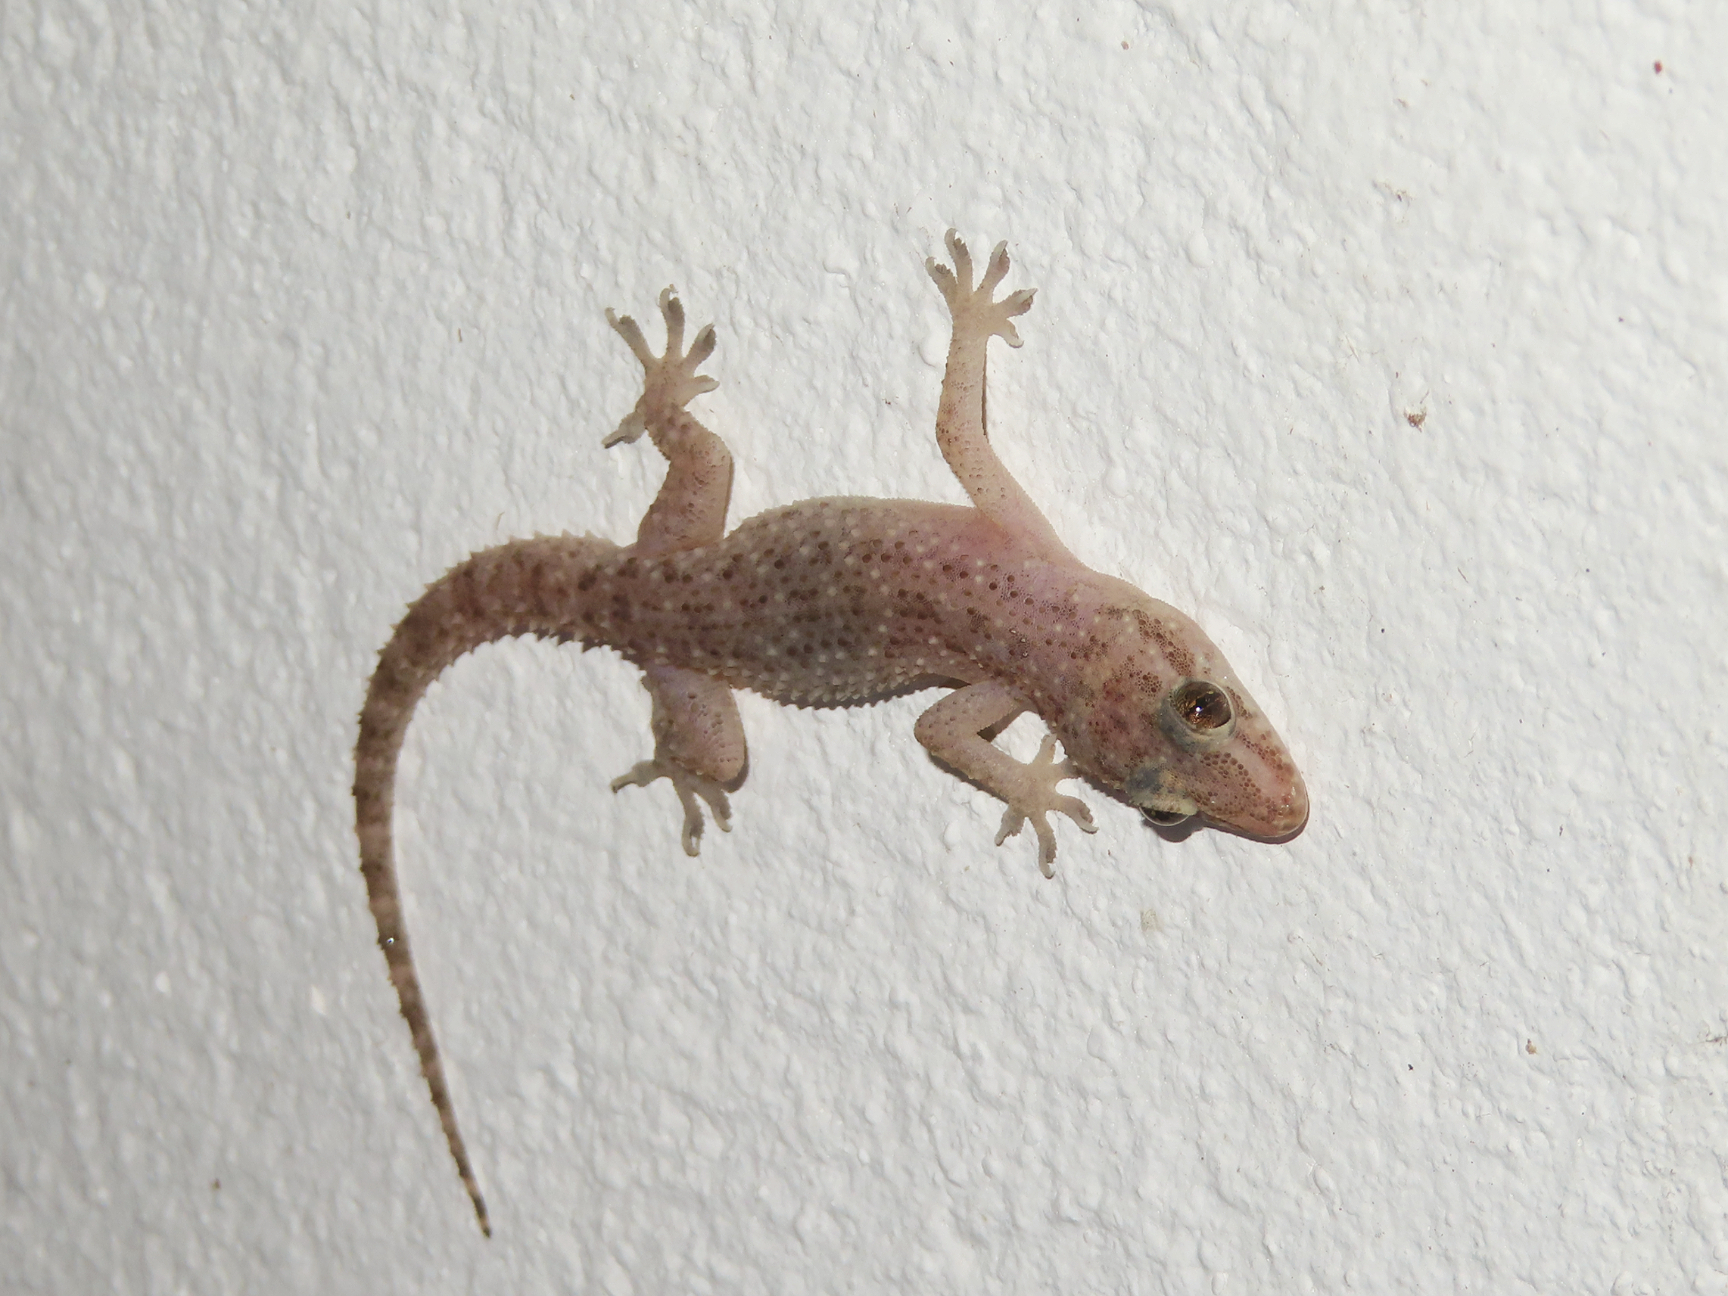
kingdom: Animalia
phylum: Chordata
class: Squamata
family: Gekkonidae
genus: Hemidactylus
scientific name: Hemidactylus parvimaculatus
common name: Spotted house gecko
